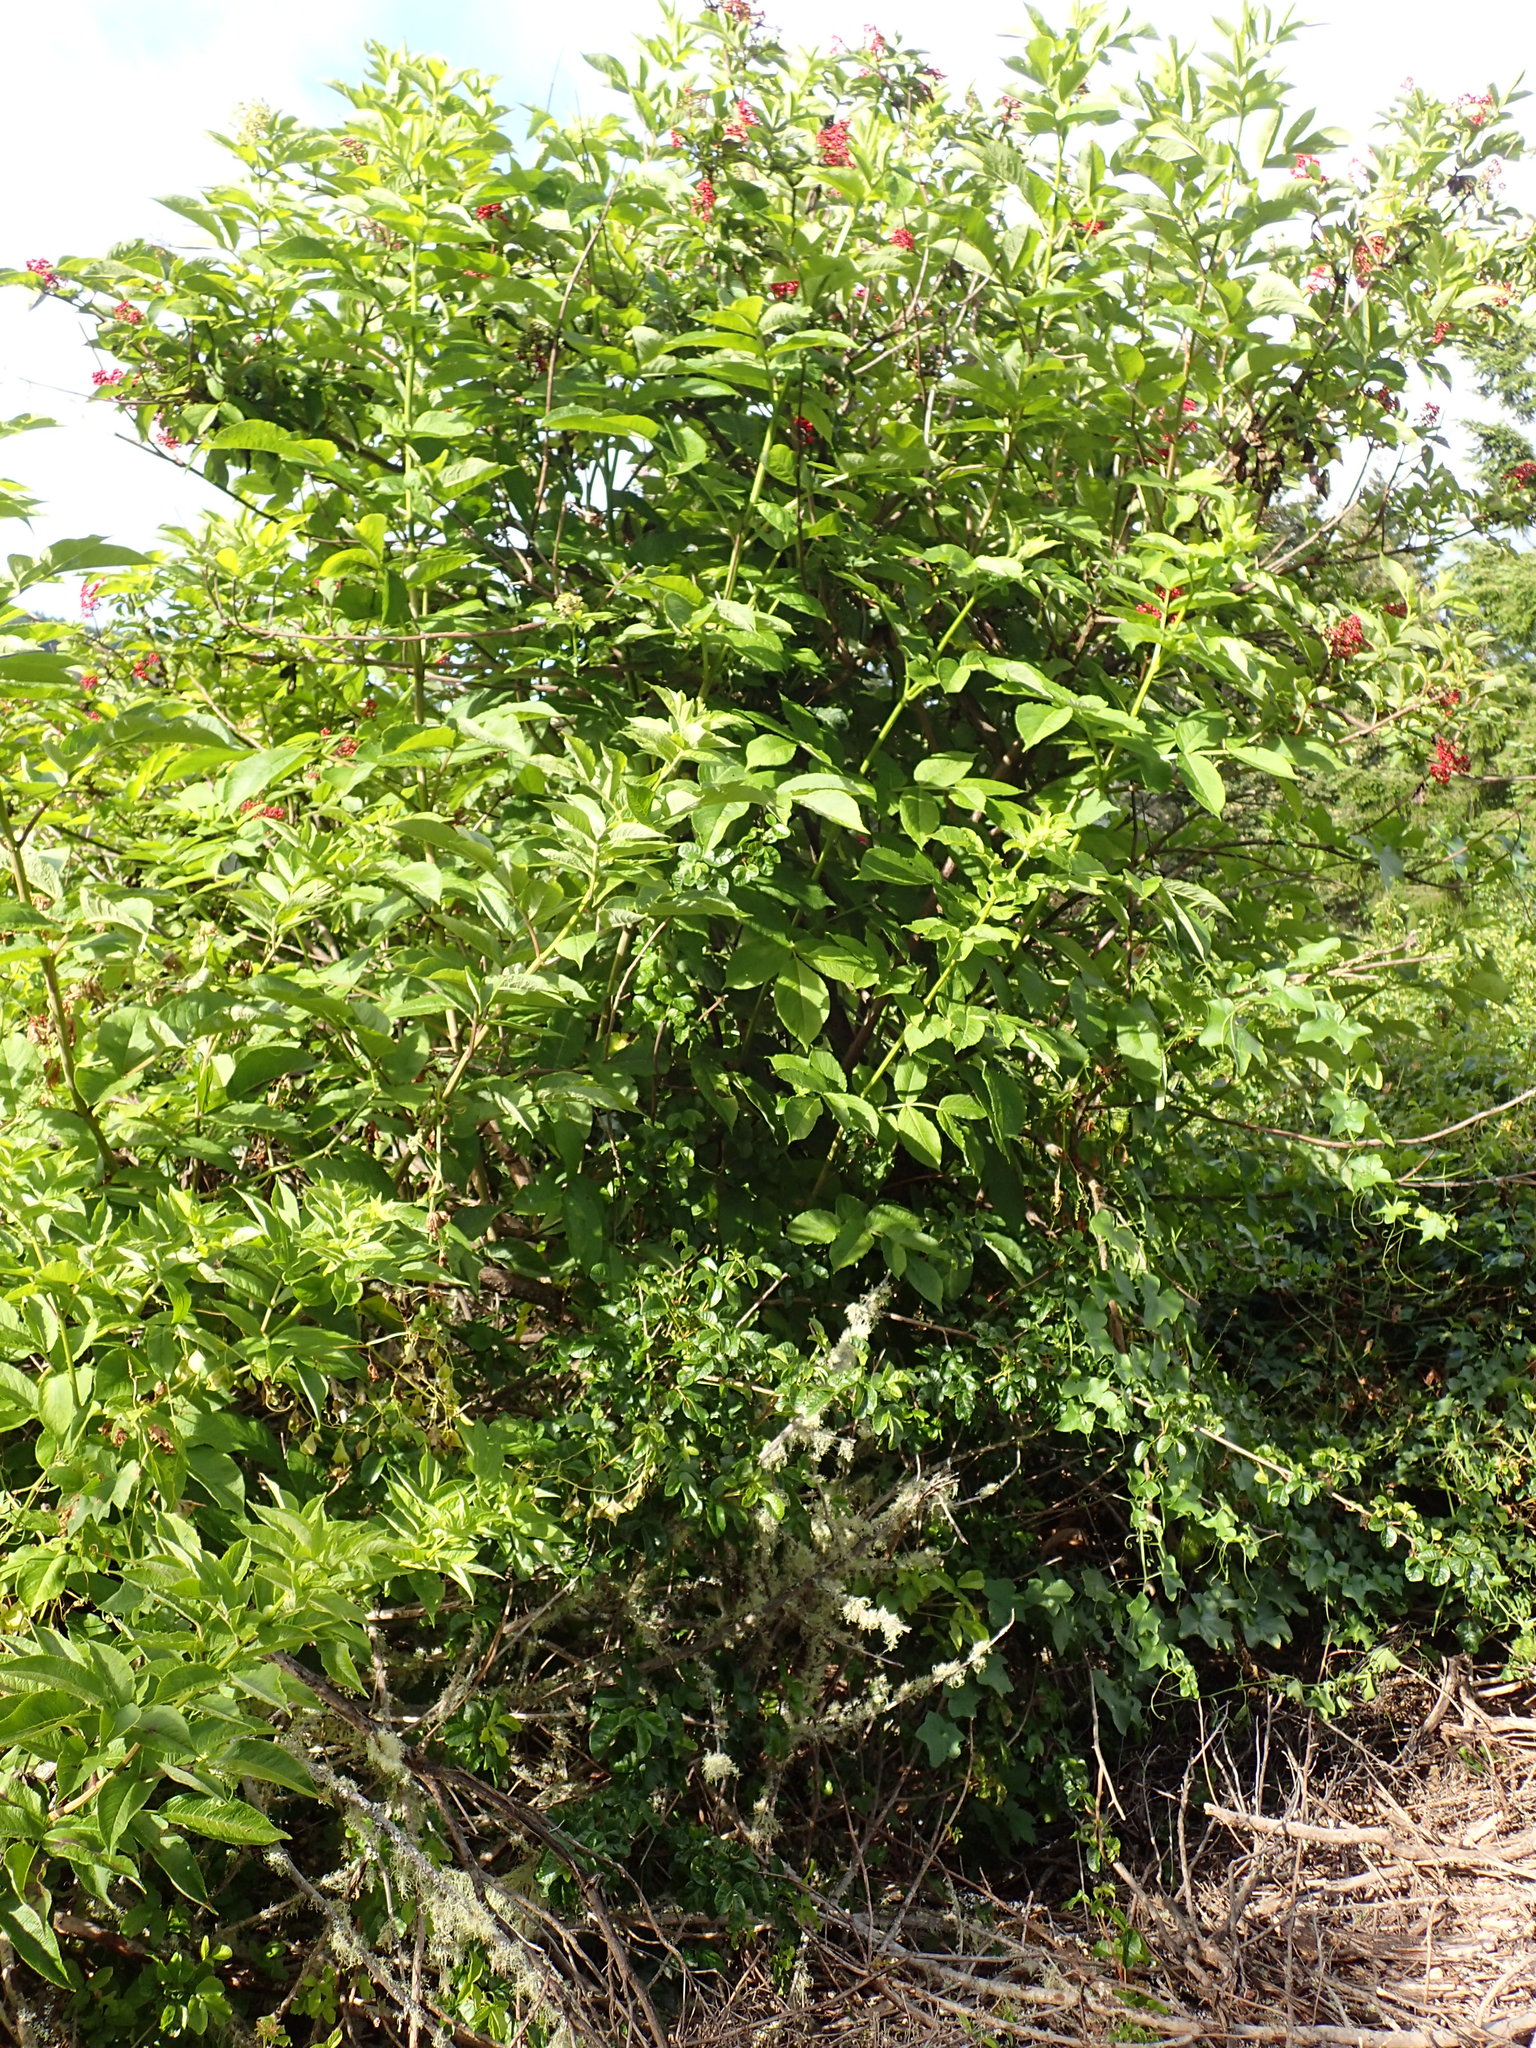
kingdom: Plantae
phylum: Tracheophyta
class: Magnoliopsida
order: Dipsacales
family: Viburnaceae
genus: Sambucus
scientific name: Sambucus racemosa
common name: Red-berried elder
